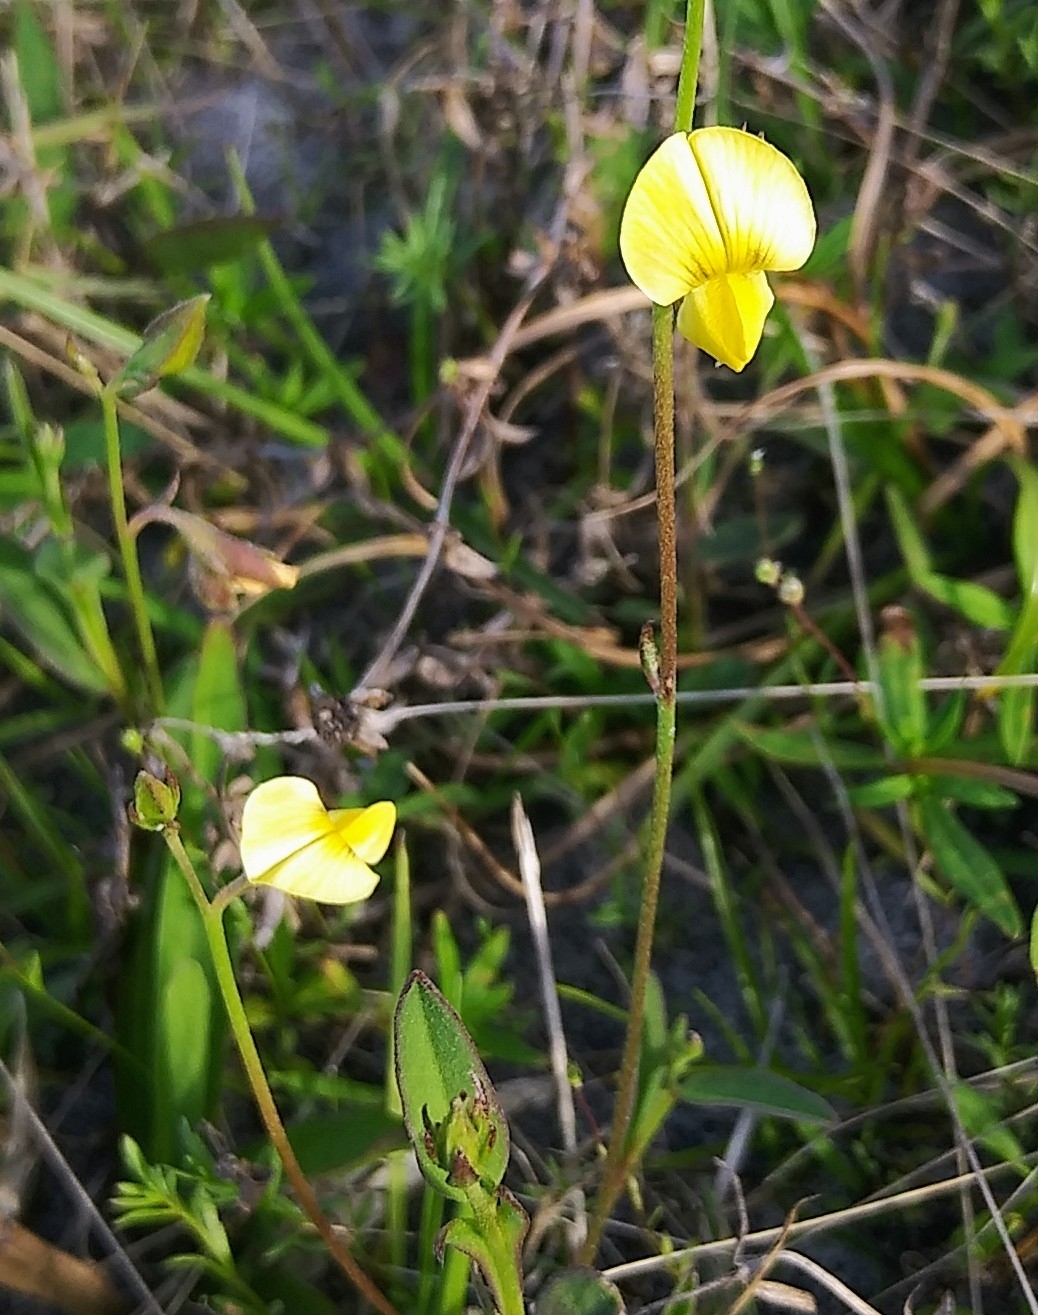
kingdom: Plantae
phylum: Tracheophyta
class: Magnoliopsida
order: Fabales
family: Fabaceae
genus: Crotalaria
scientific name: Crotalaria rotundifolia
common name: Prostrate rattlebox
